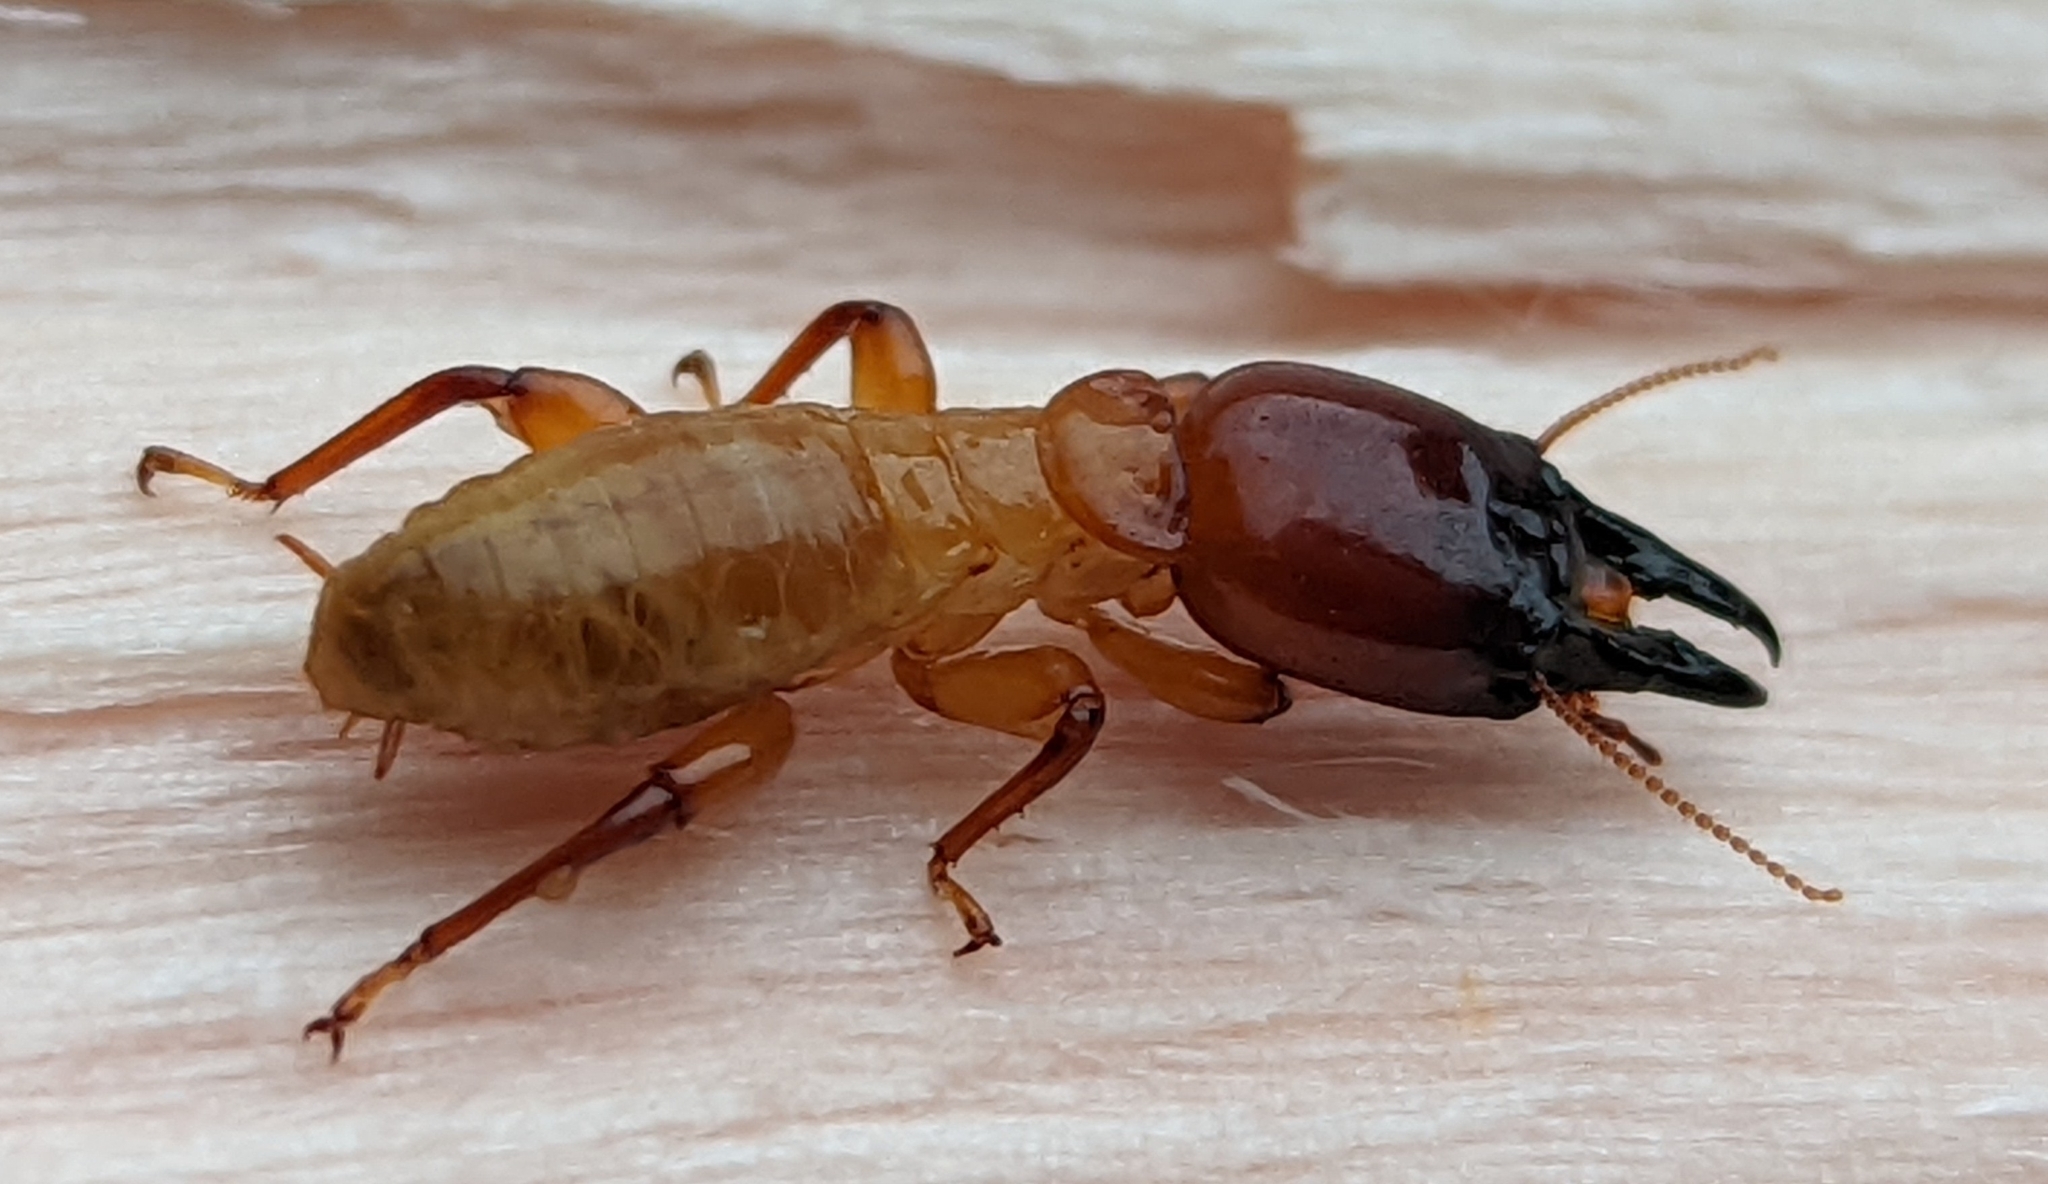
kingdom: Animalia
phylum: Arthropoda
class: Insecta
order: Blattodea
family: Archotermopsidae
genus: Zootermopsis
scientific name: Zootermopsis
